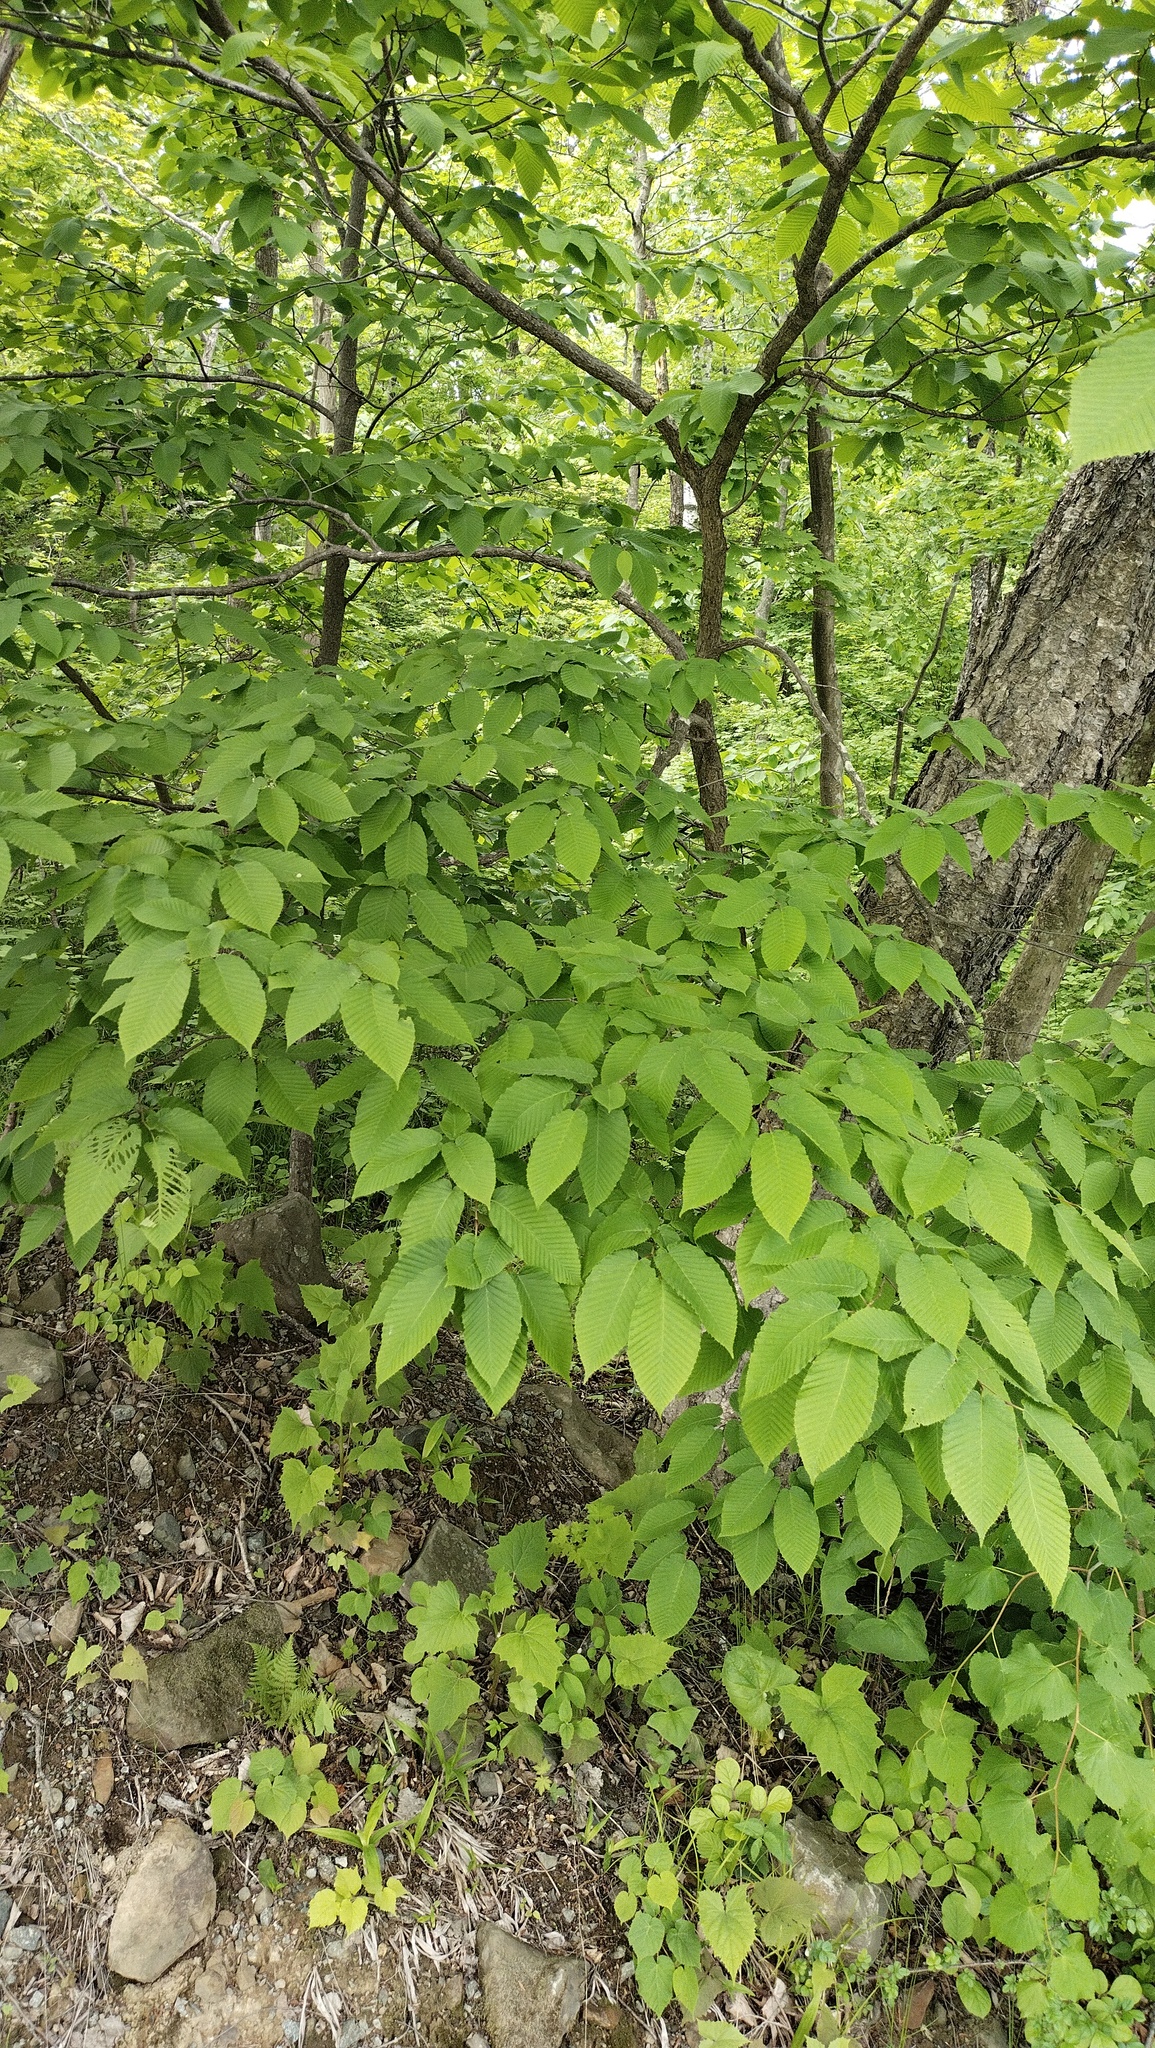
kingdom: Plantae
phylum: Tracheophyta
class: Magnoliopsida
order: Fagales
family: Betulaceae
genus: Carpinus
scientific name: Carpinus cordata
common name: Sawa hornbeam
